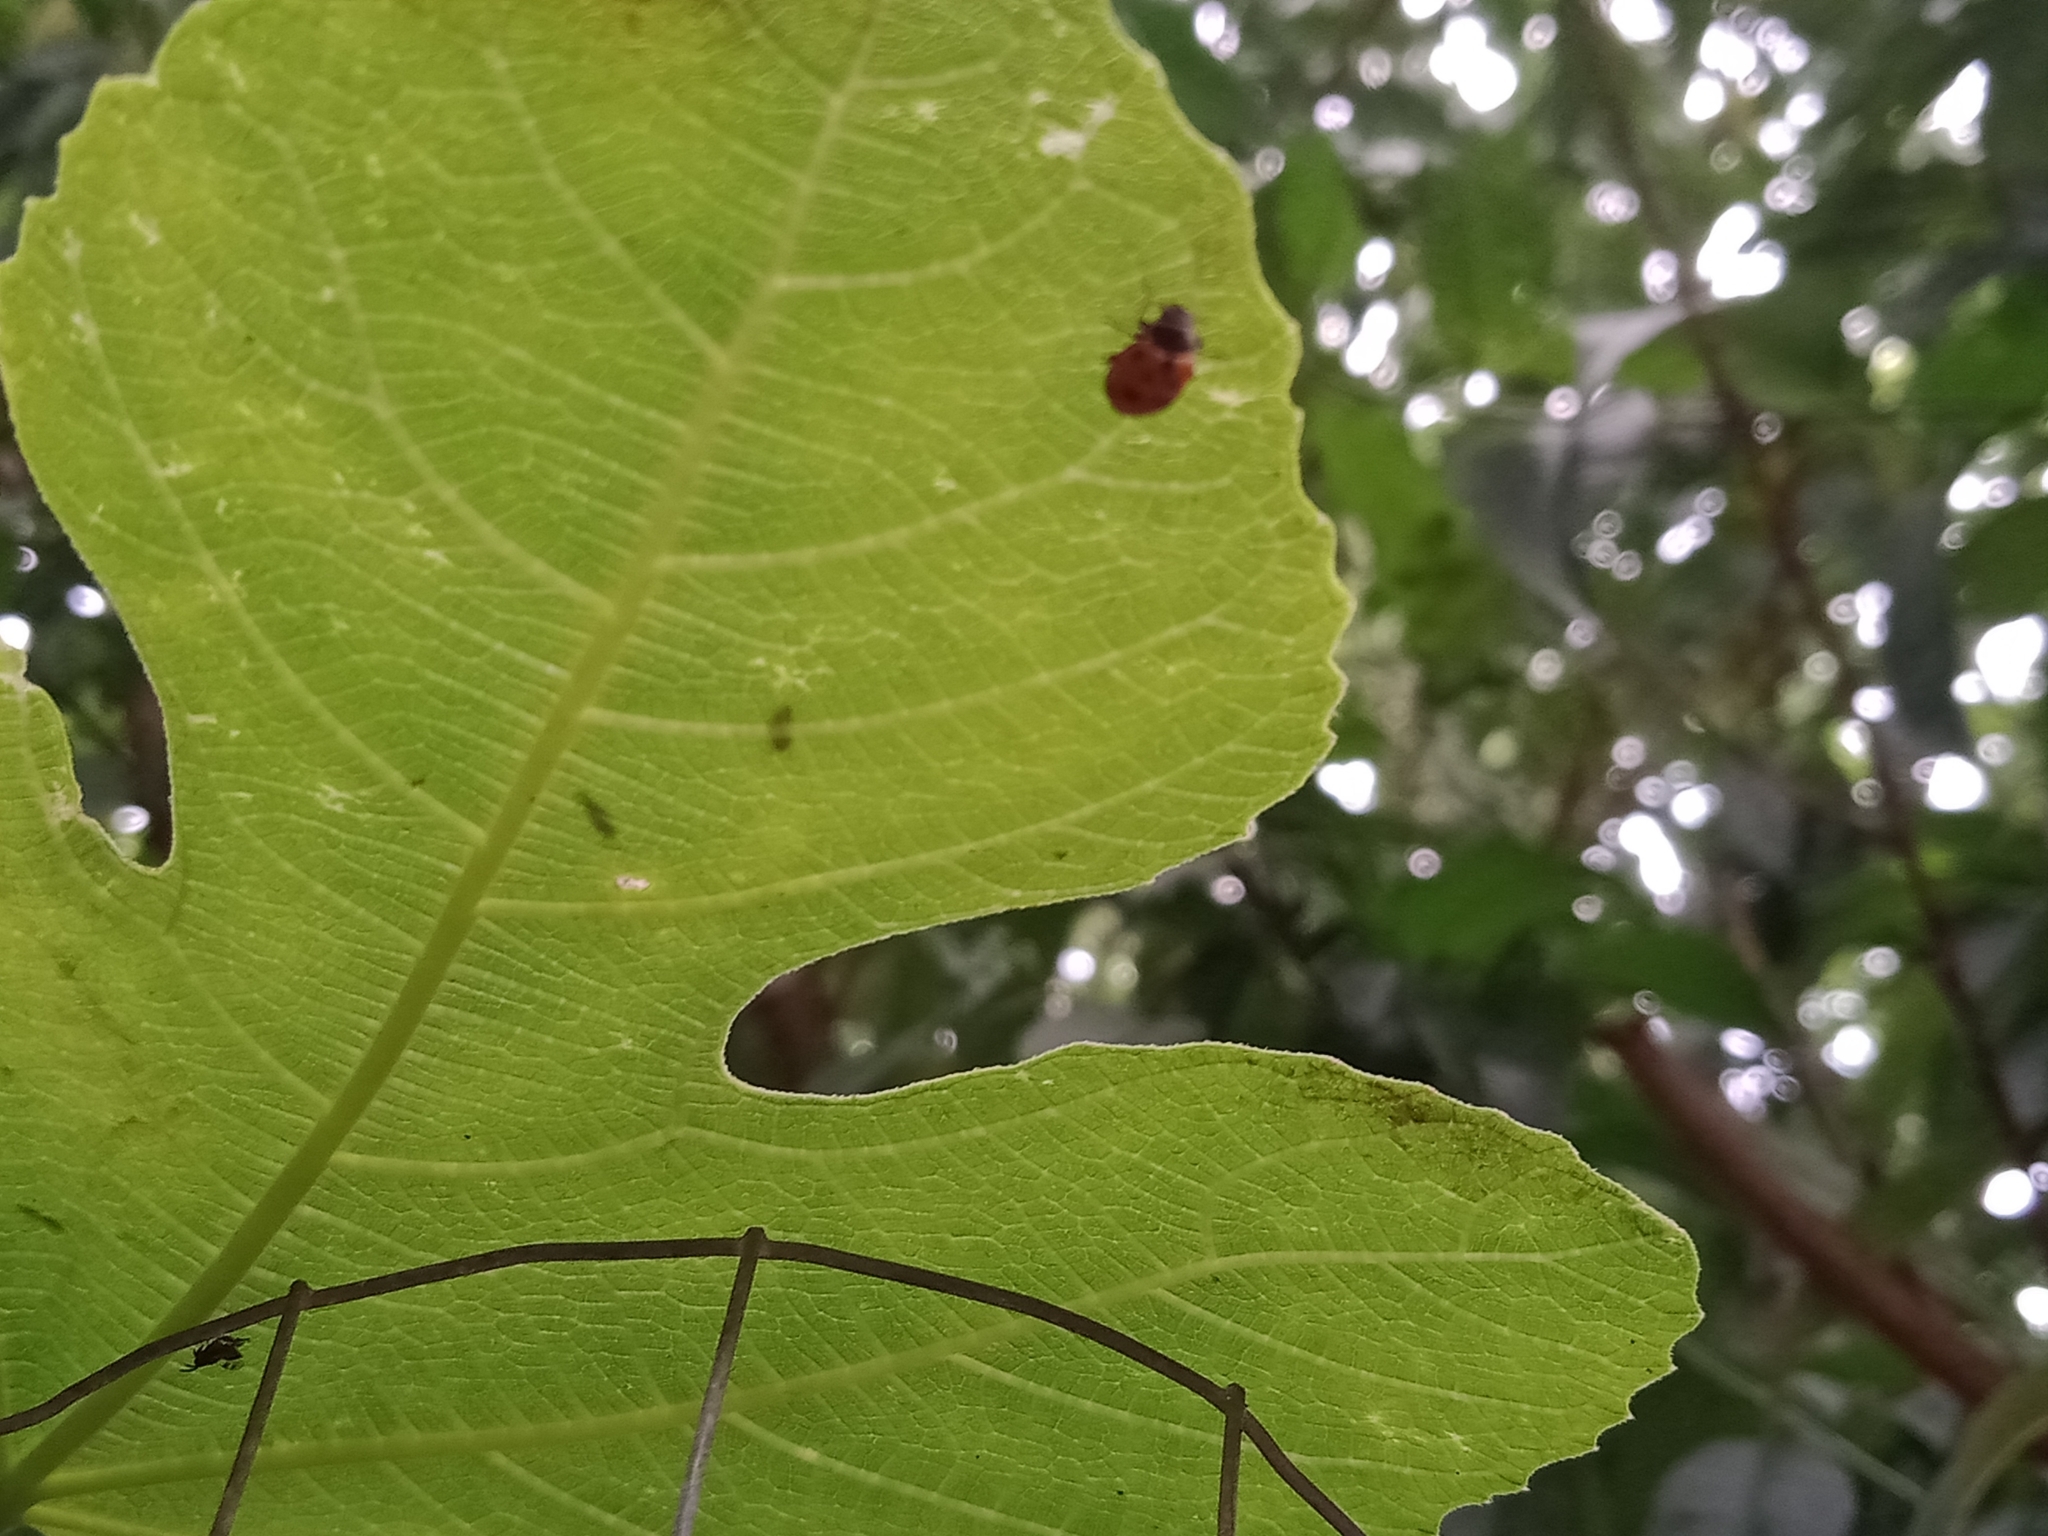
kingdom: Animalia
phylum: Arthropoda
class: Insecta
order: Coleoptera
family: Coccinellidae
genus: Hippodamia
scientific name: Hippodamia variegata
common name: Ladybird beetle
